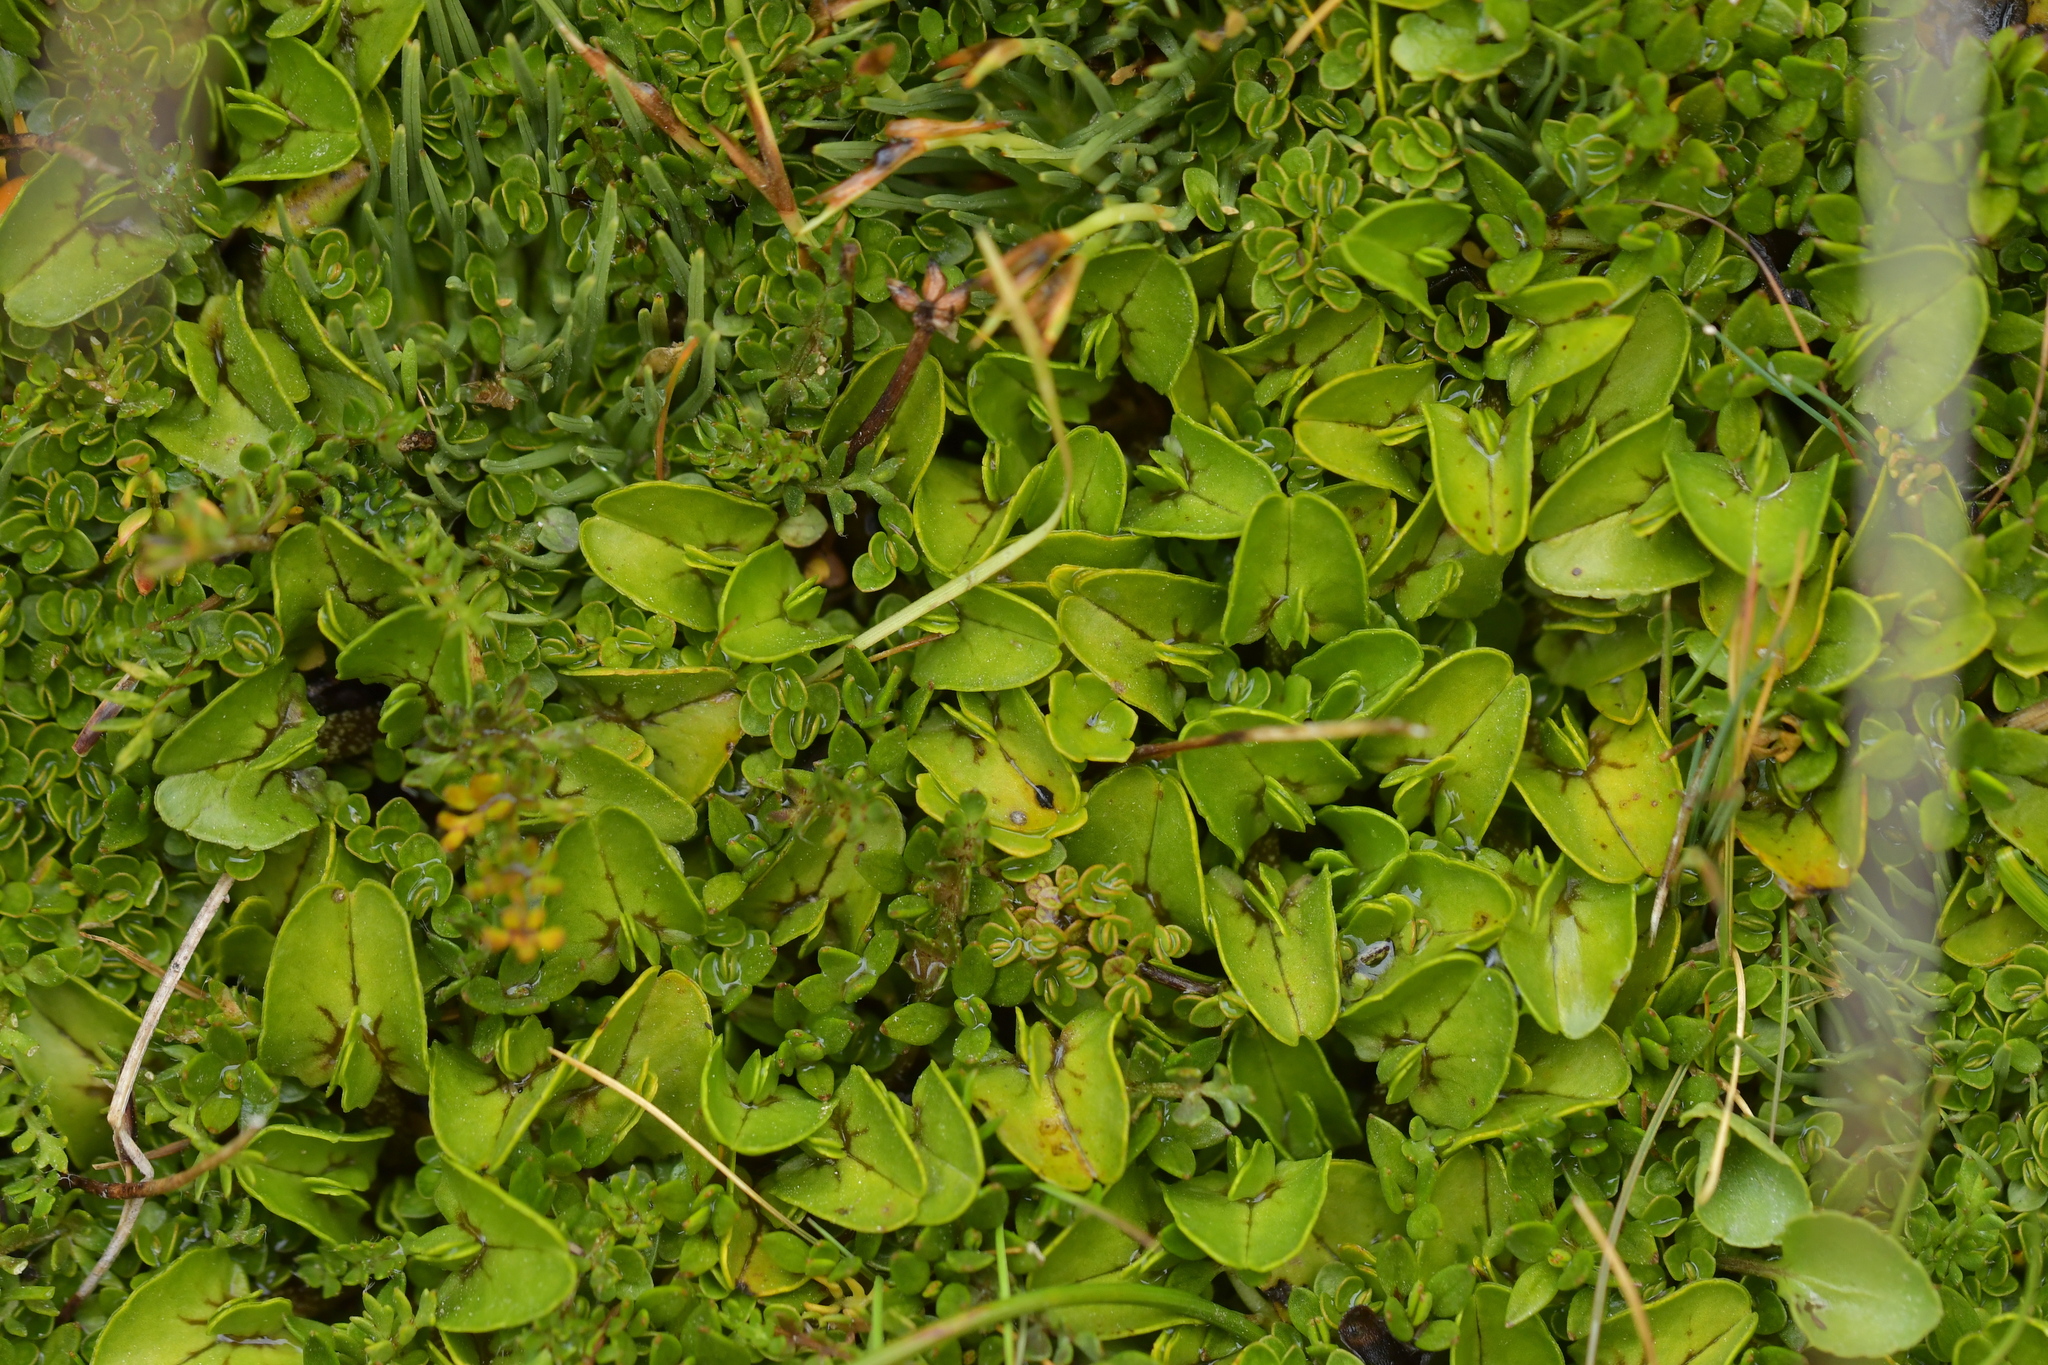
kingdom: Plantae
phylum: Tracheophyta
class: Magnoliopsida
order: Ranunculales
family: Ranunculaceae
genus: Caltha
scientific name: Caltha obtusa
